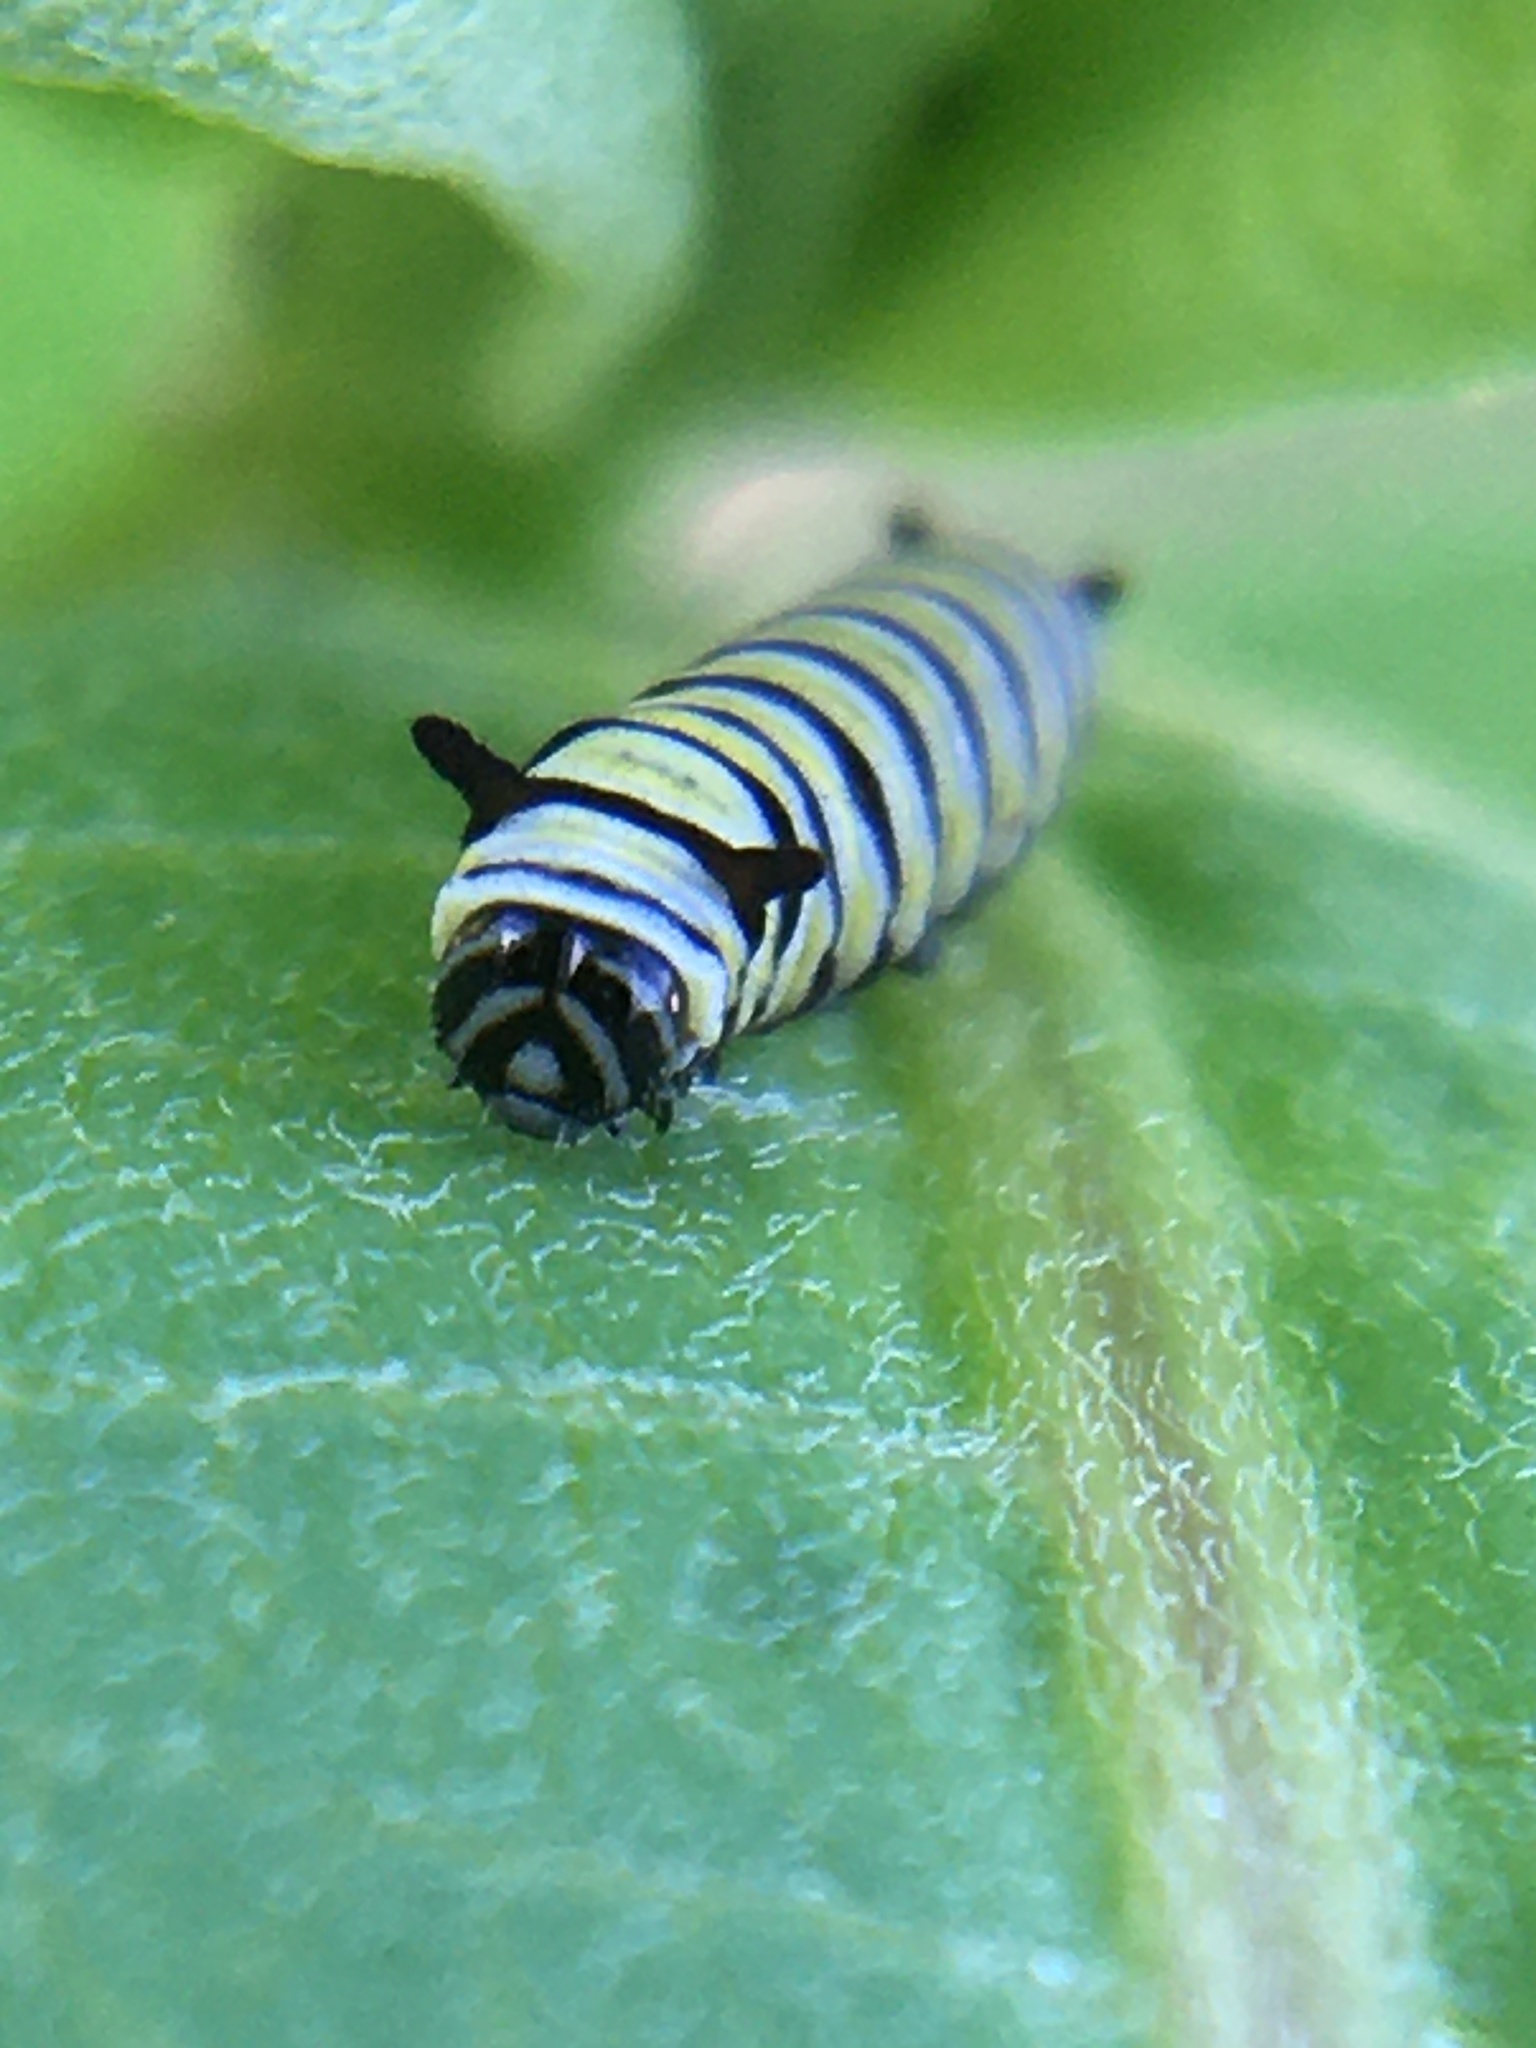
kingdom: Animalia
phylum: Arthropoda
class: Insecta
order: Lepidoptera
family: Nymphalidae
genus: Danaus
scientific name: Danaus plexippus
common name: Monarch
